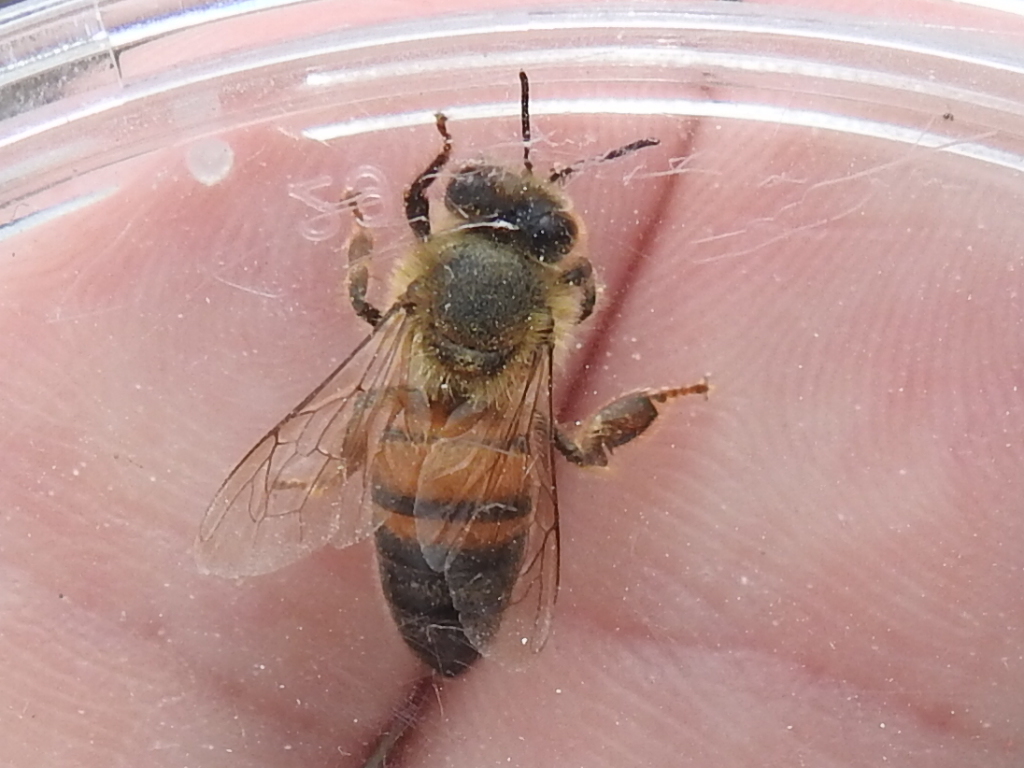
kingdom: Animalia
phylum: Arthropoda
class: Insecta
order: Hymenoptera
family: Apidae
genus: Apis
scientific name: Apis mellifera
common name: Honey bee
